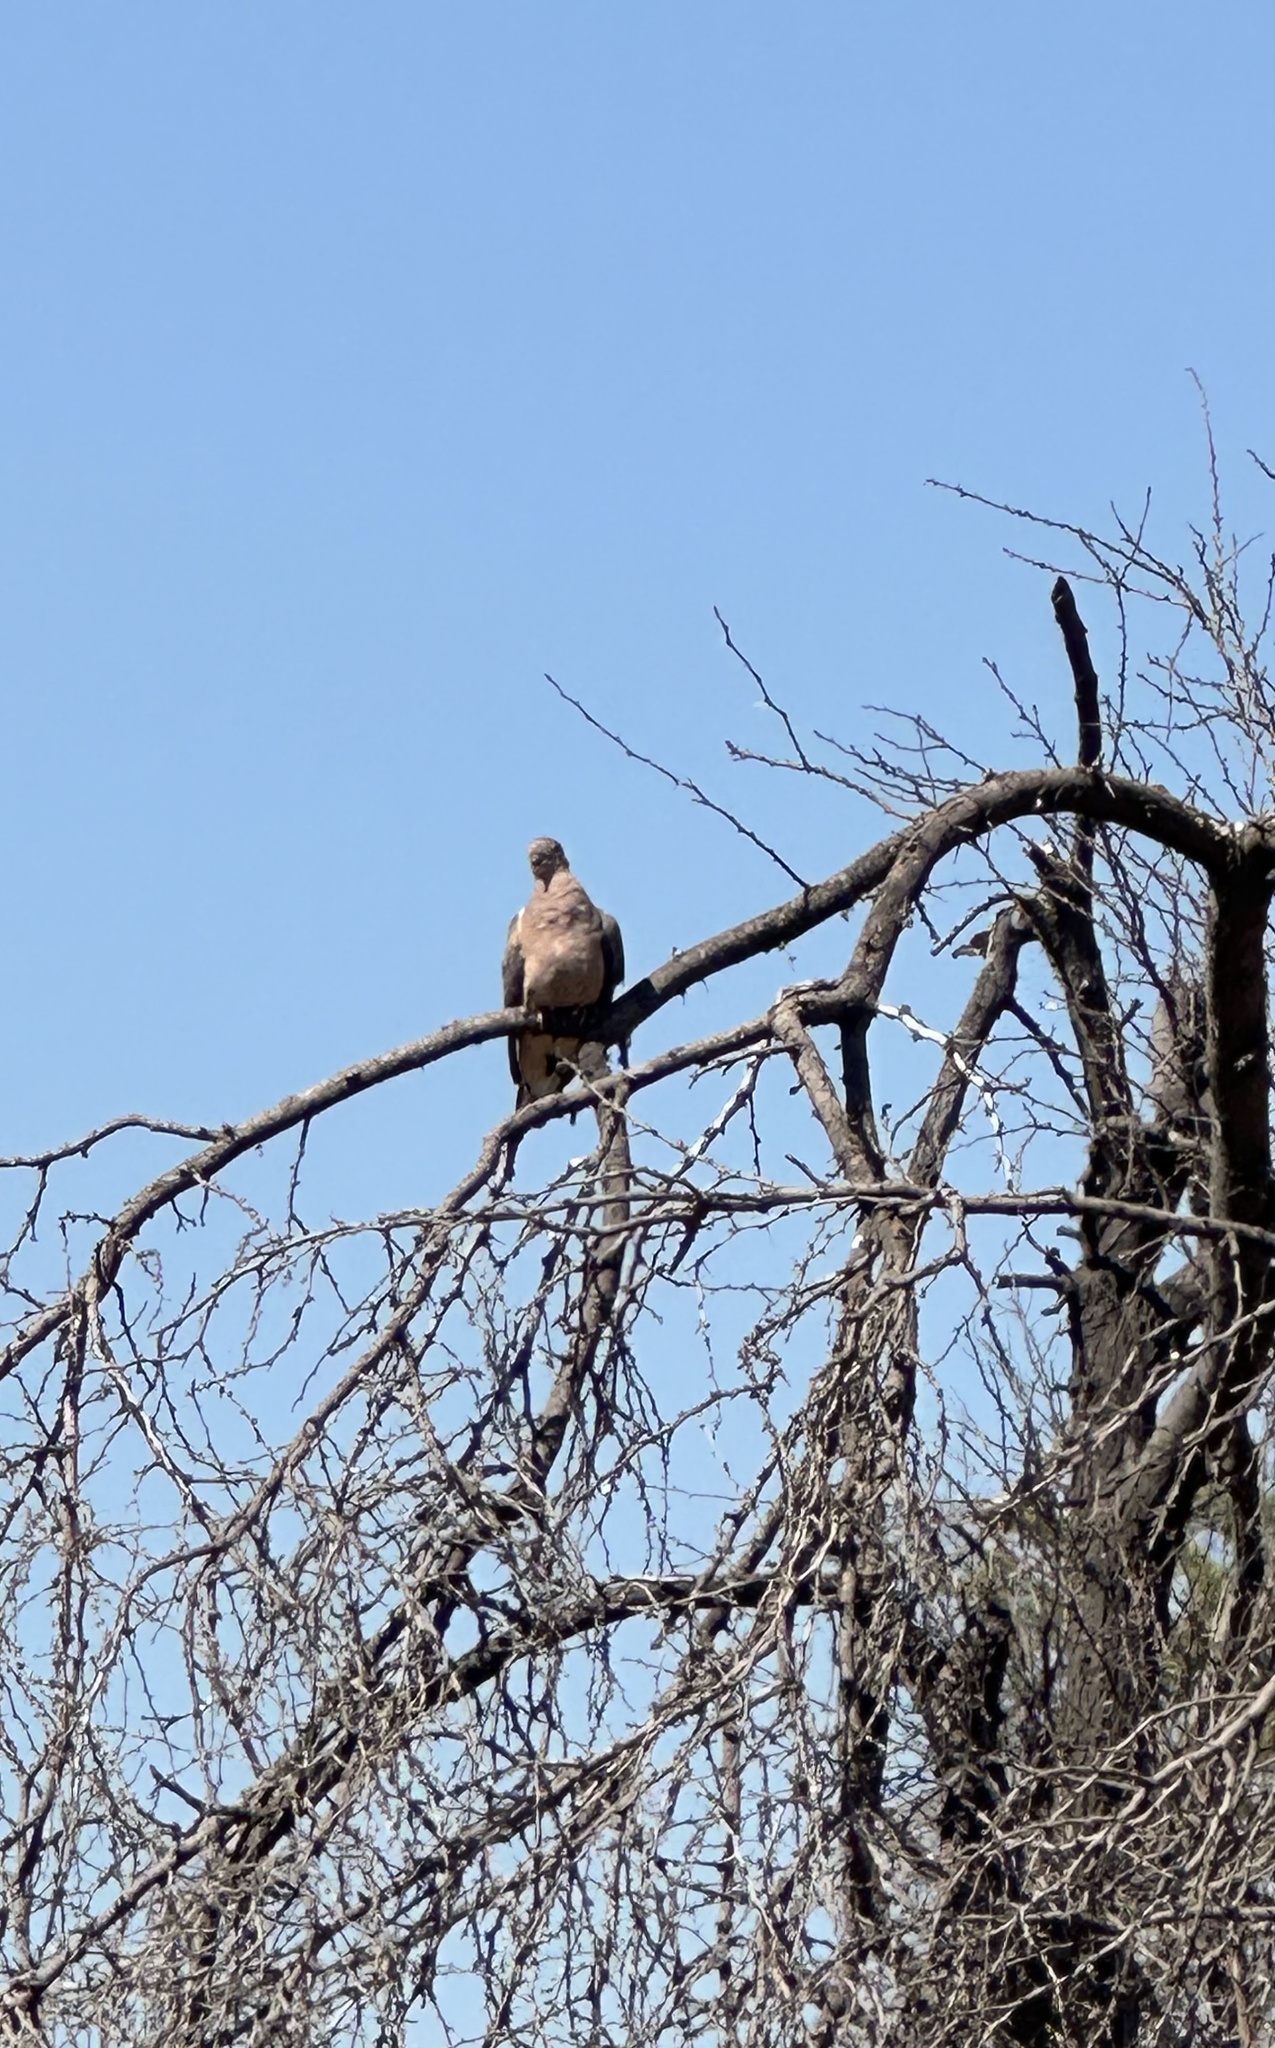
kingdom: Animalia
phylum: Chordata
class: Aves
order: Columbiformes
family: Columbidae
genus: Zenaida
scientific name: Zenaida auriculata
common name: Eared dove
